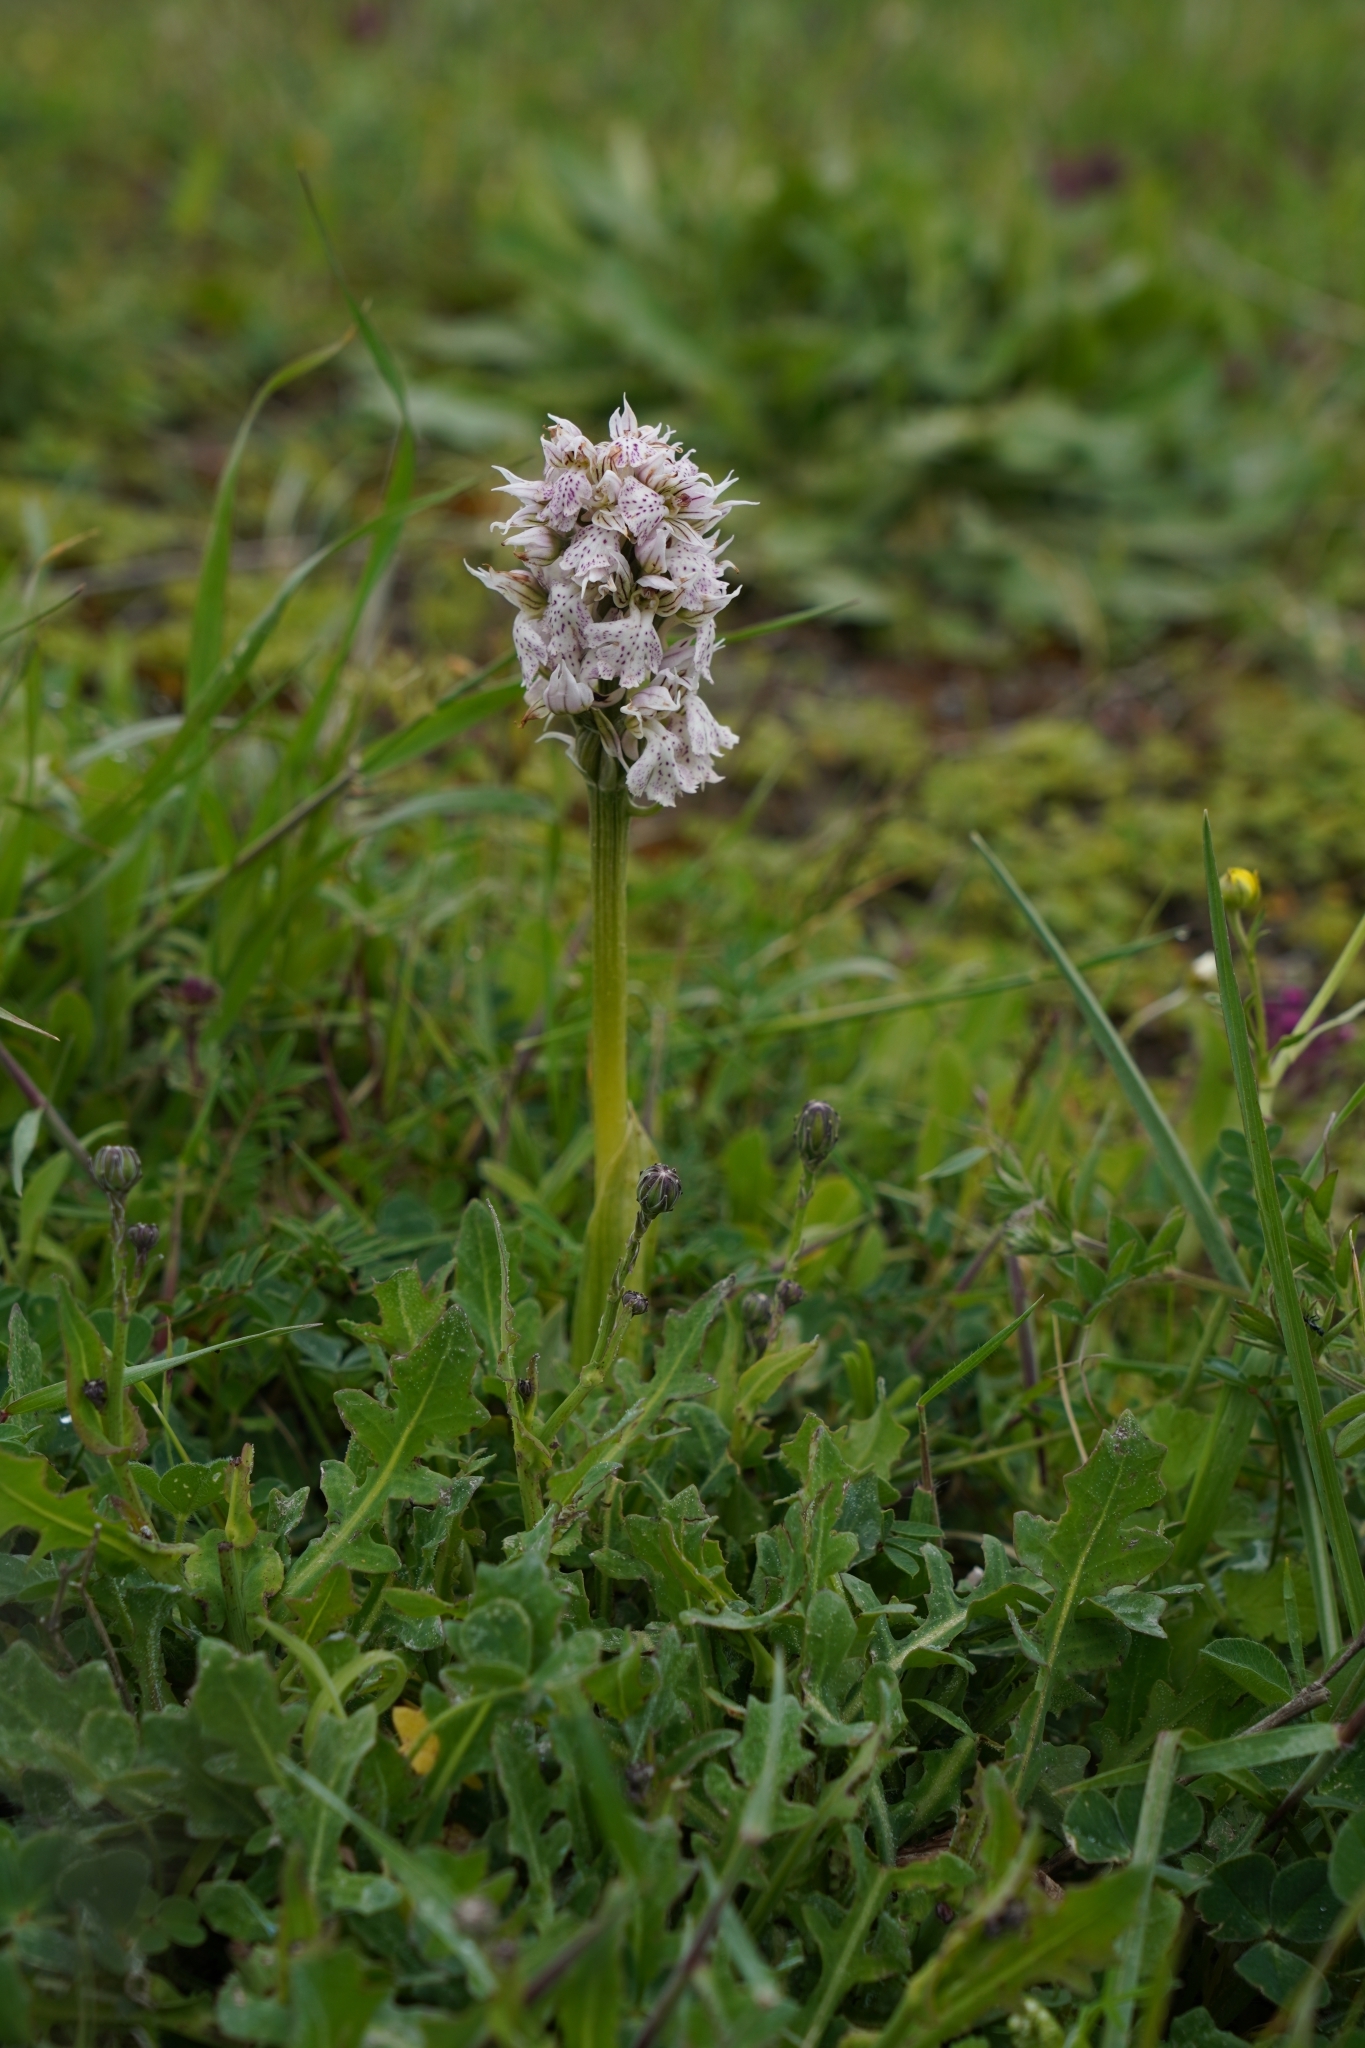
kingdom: Plantae
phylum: Tracheophyta
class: Liliopsida
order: Asparagales
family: Orchidaceae
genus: Neotinea
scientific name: Neotinea lactea
